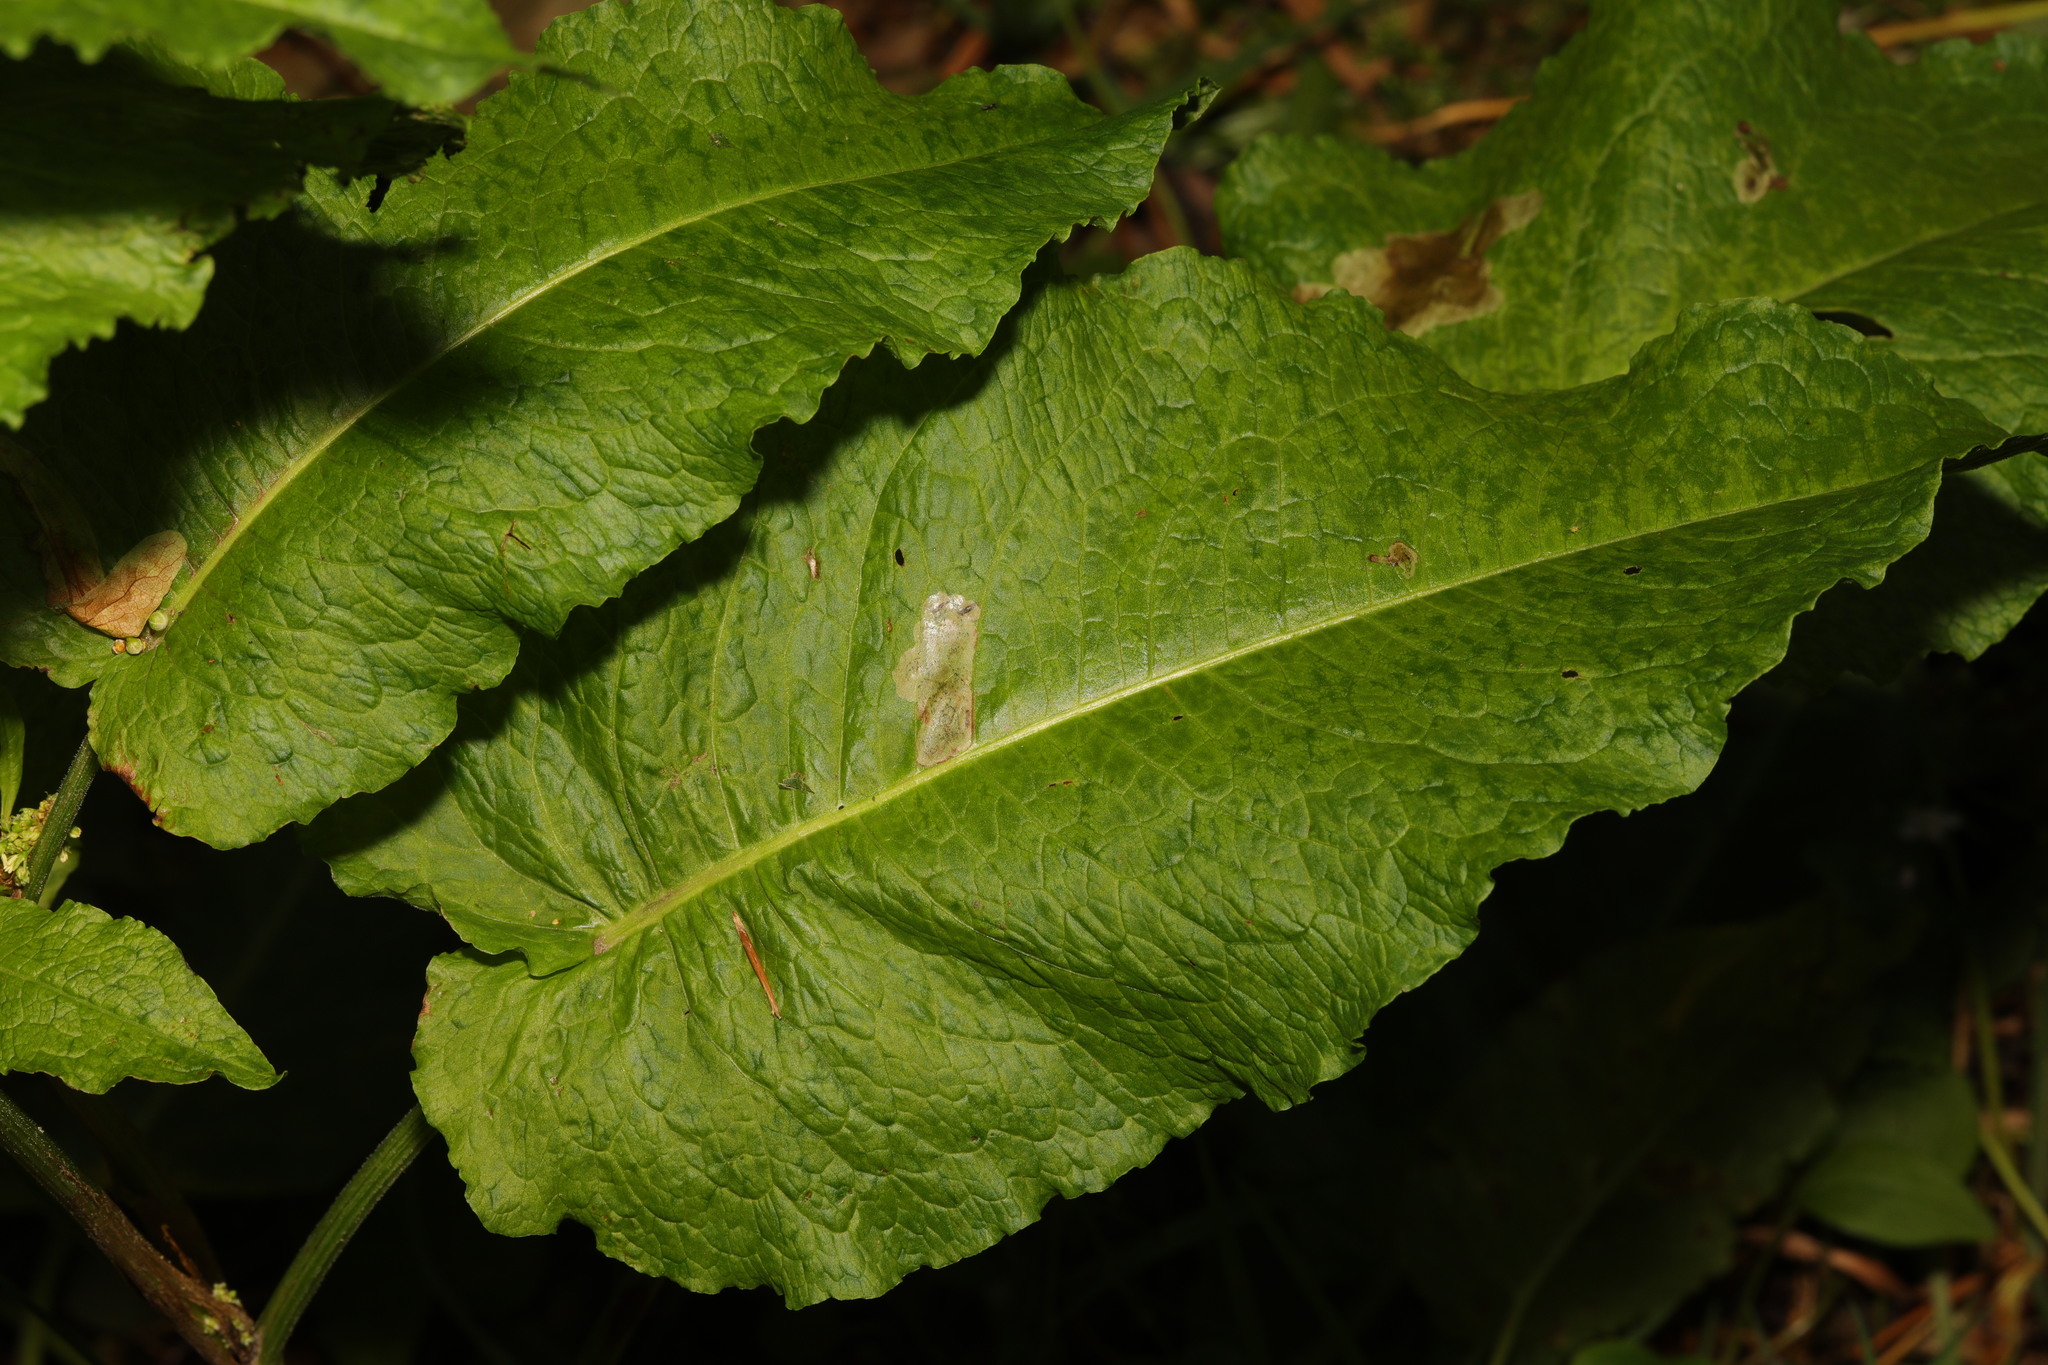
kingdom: Plantae
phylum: Tracheophyta
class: Magnoliopsida
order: Caryophyllales
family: Polygonaceae
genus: Rumex
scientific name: Rumex obtusifolius
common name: Bitter dock
